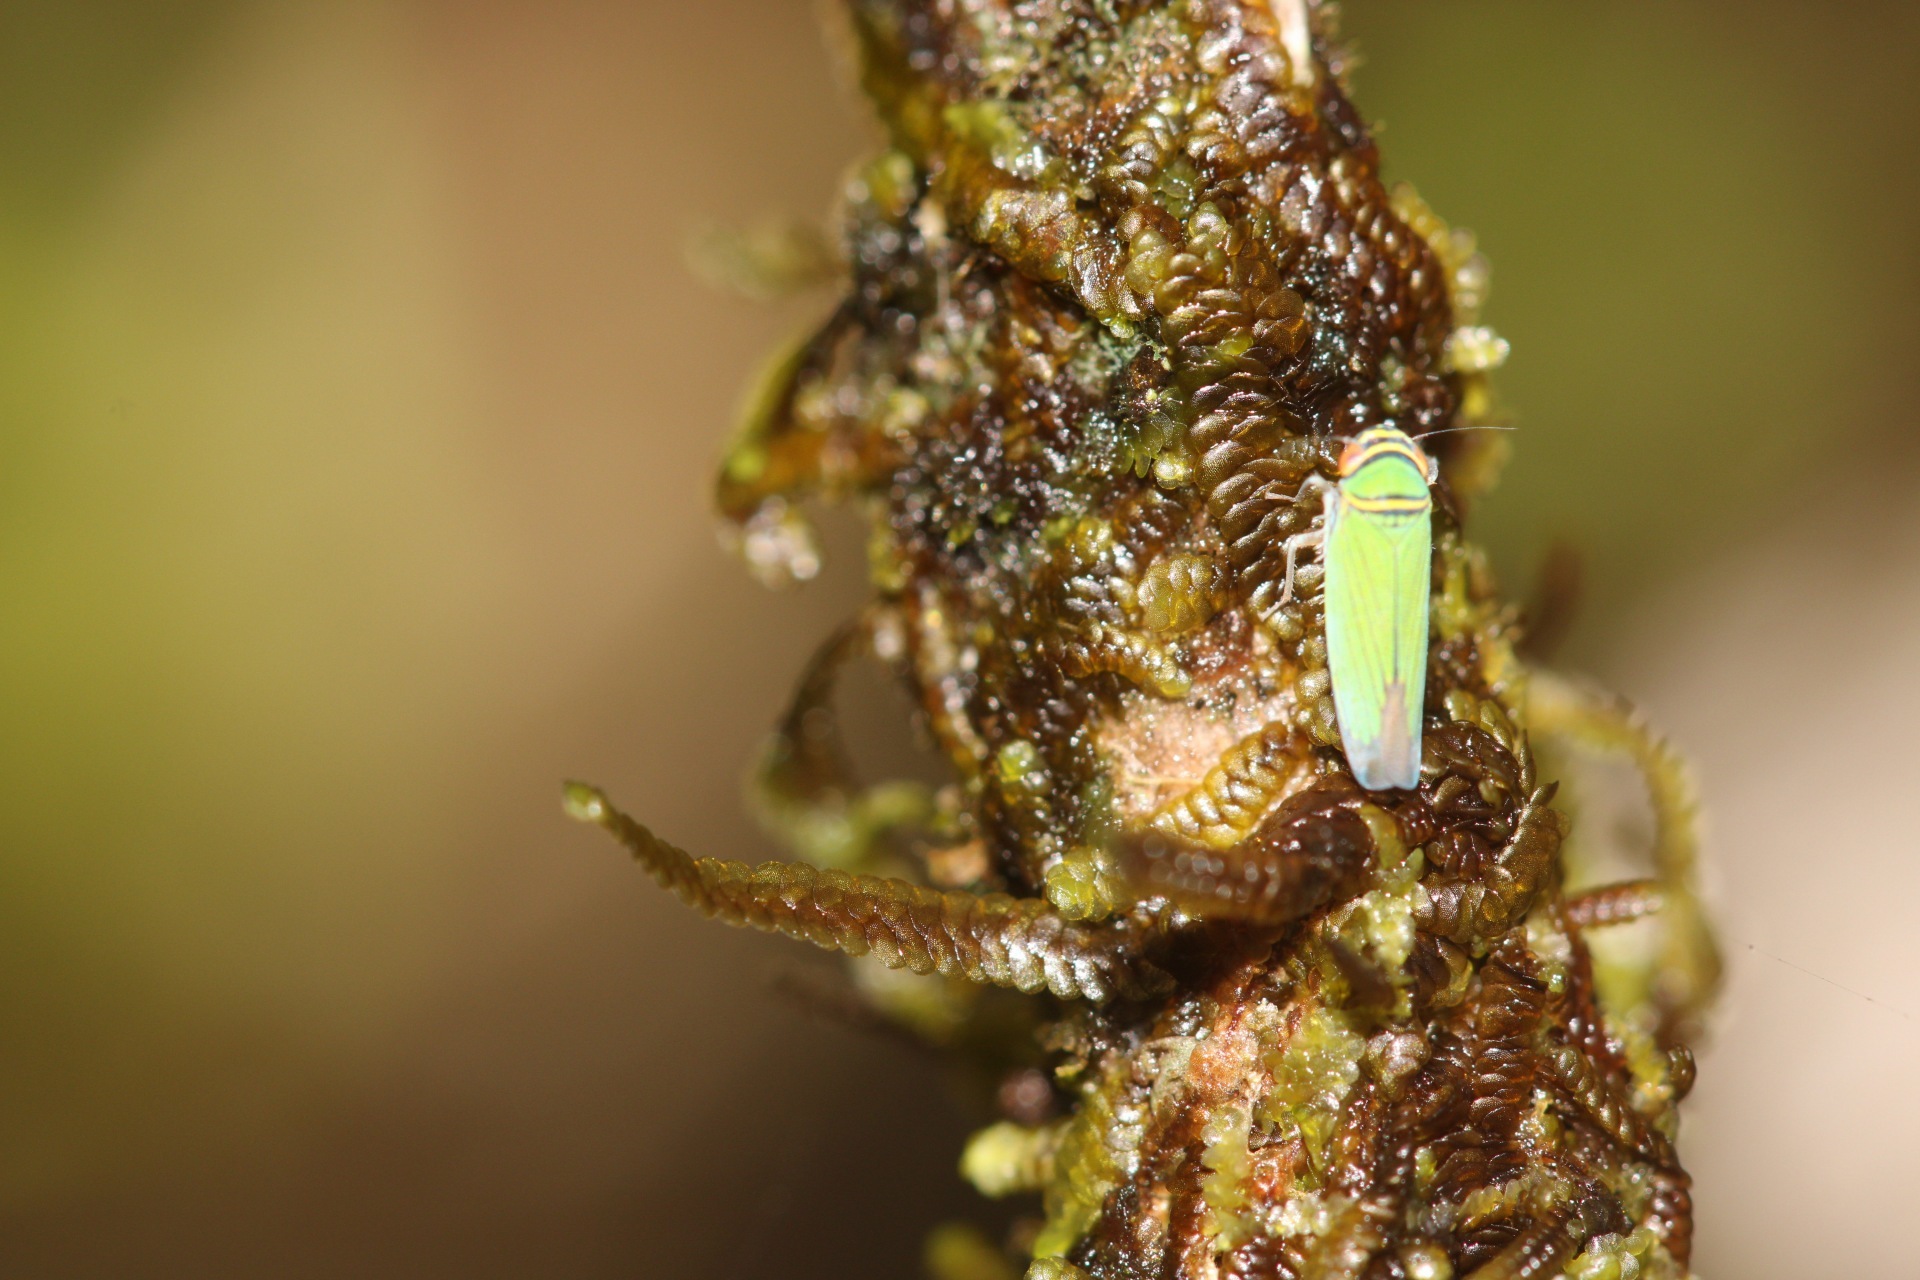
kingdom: Animalia
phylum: Arthropoda
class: Insecta
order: Hemiptera
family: Cicadellidae
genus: Tylozygus
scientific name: Tylozygus geometricus
